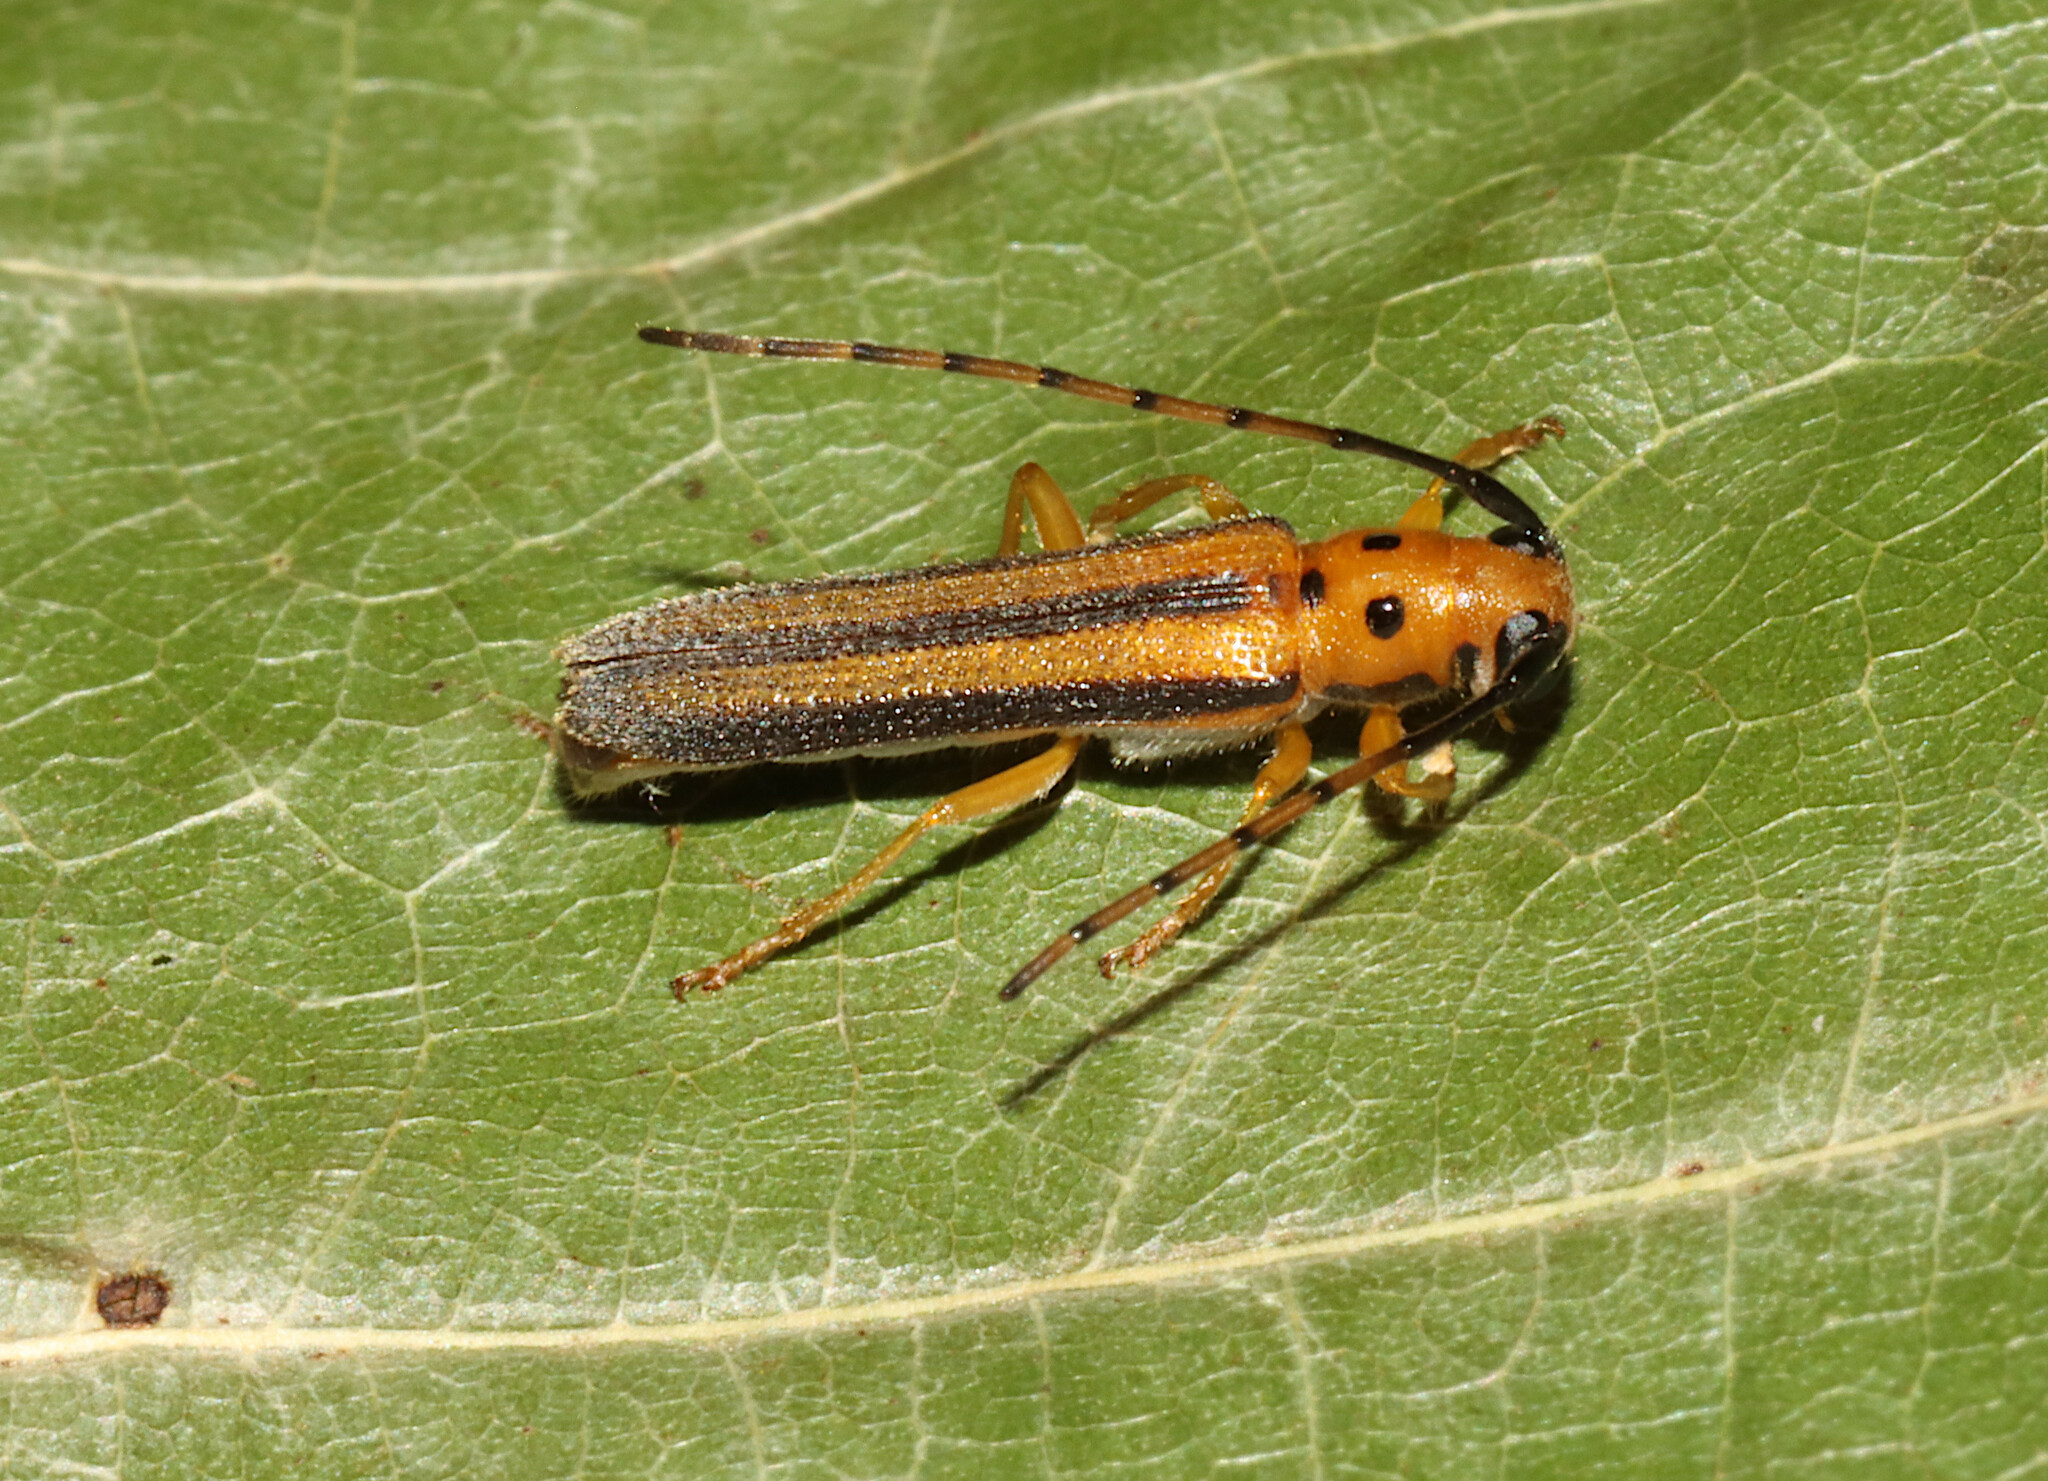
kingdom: Animalia
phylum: Arthropoda
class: Insecta
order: Coleoptera
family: Cerambycidae
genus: Oberea
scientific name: Oberea tripunctata
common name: Dogwood twig borer
